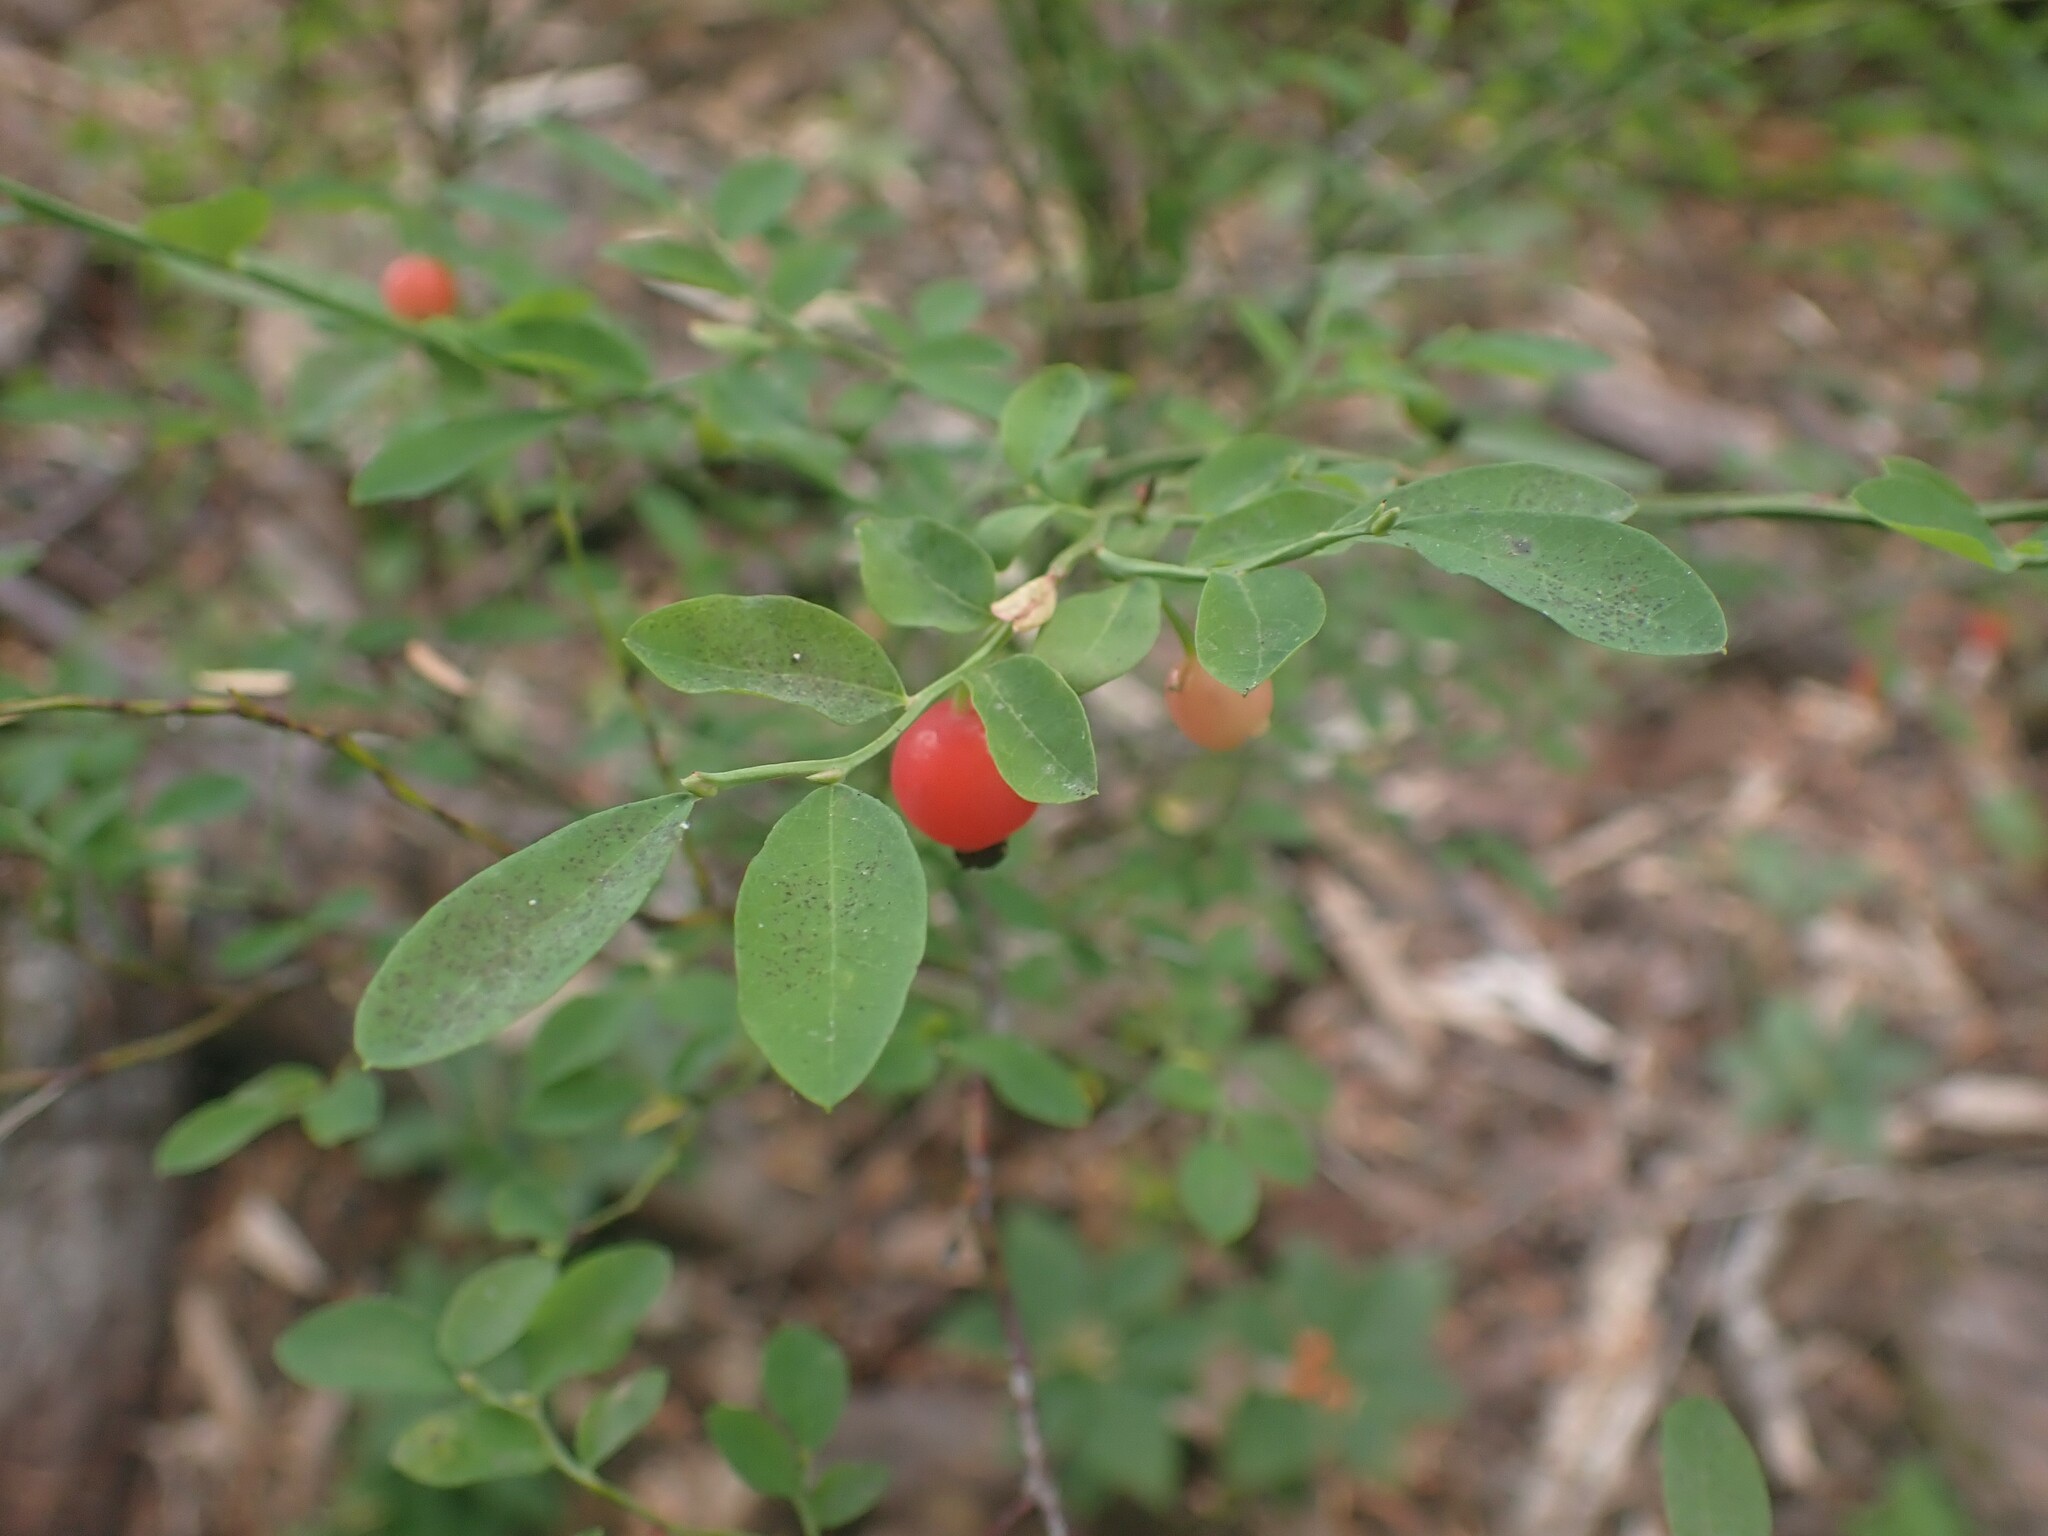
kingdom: Plantae
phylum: Tracheophyta
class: Magnoliopsida
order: Ericales
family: Ericaceae
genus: Vaccinium
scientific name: Vaccinium parvifolium
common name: Red-huckleberry
